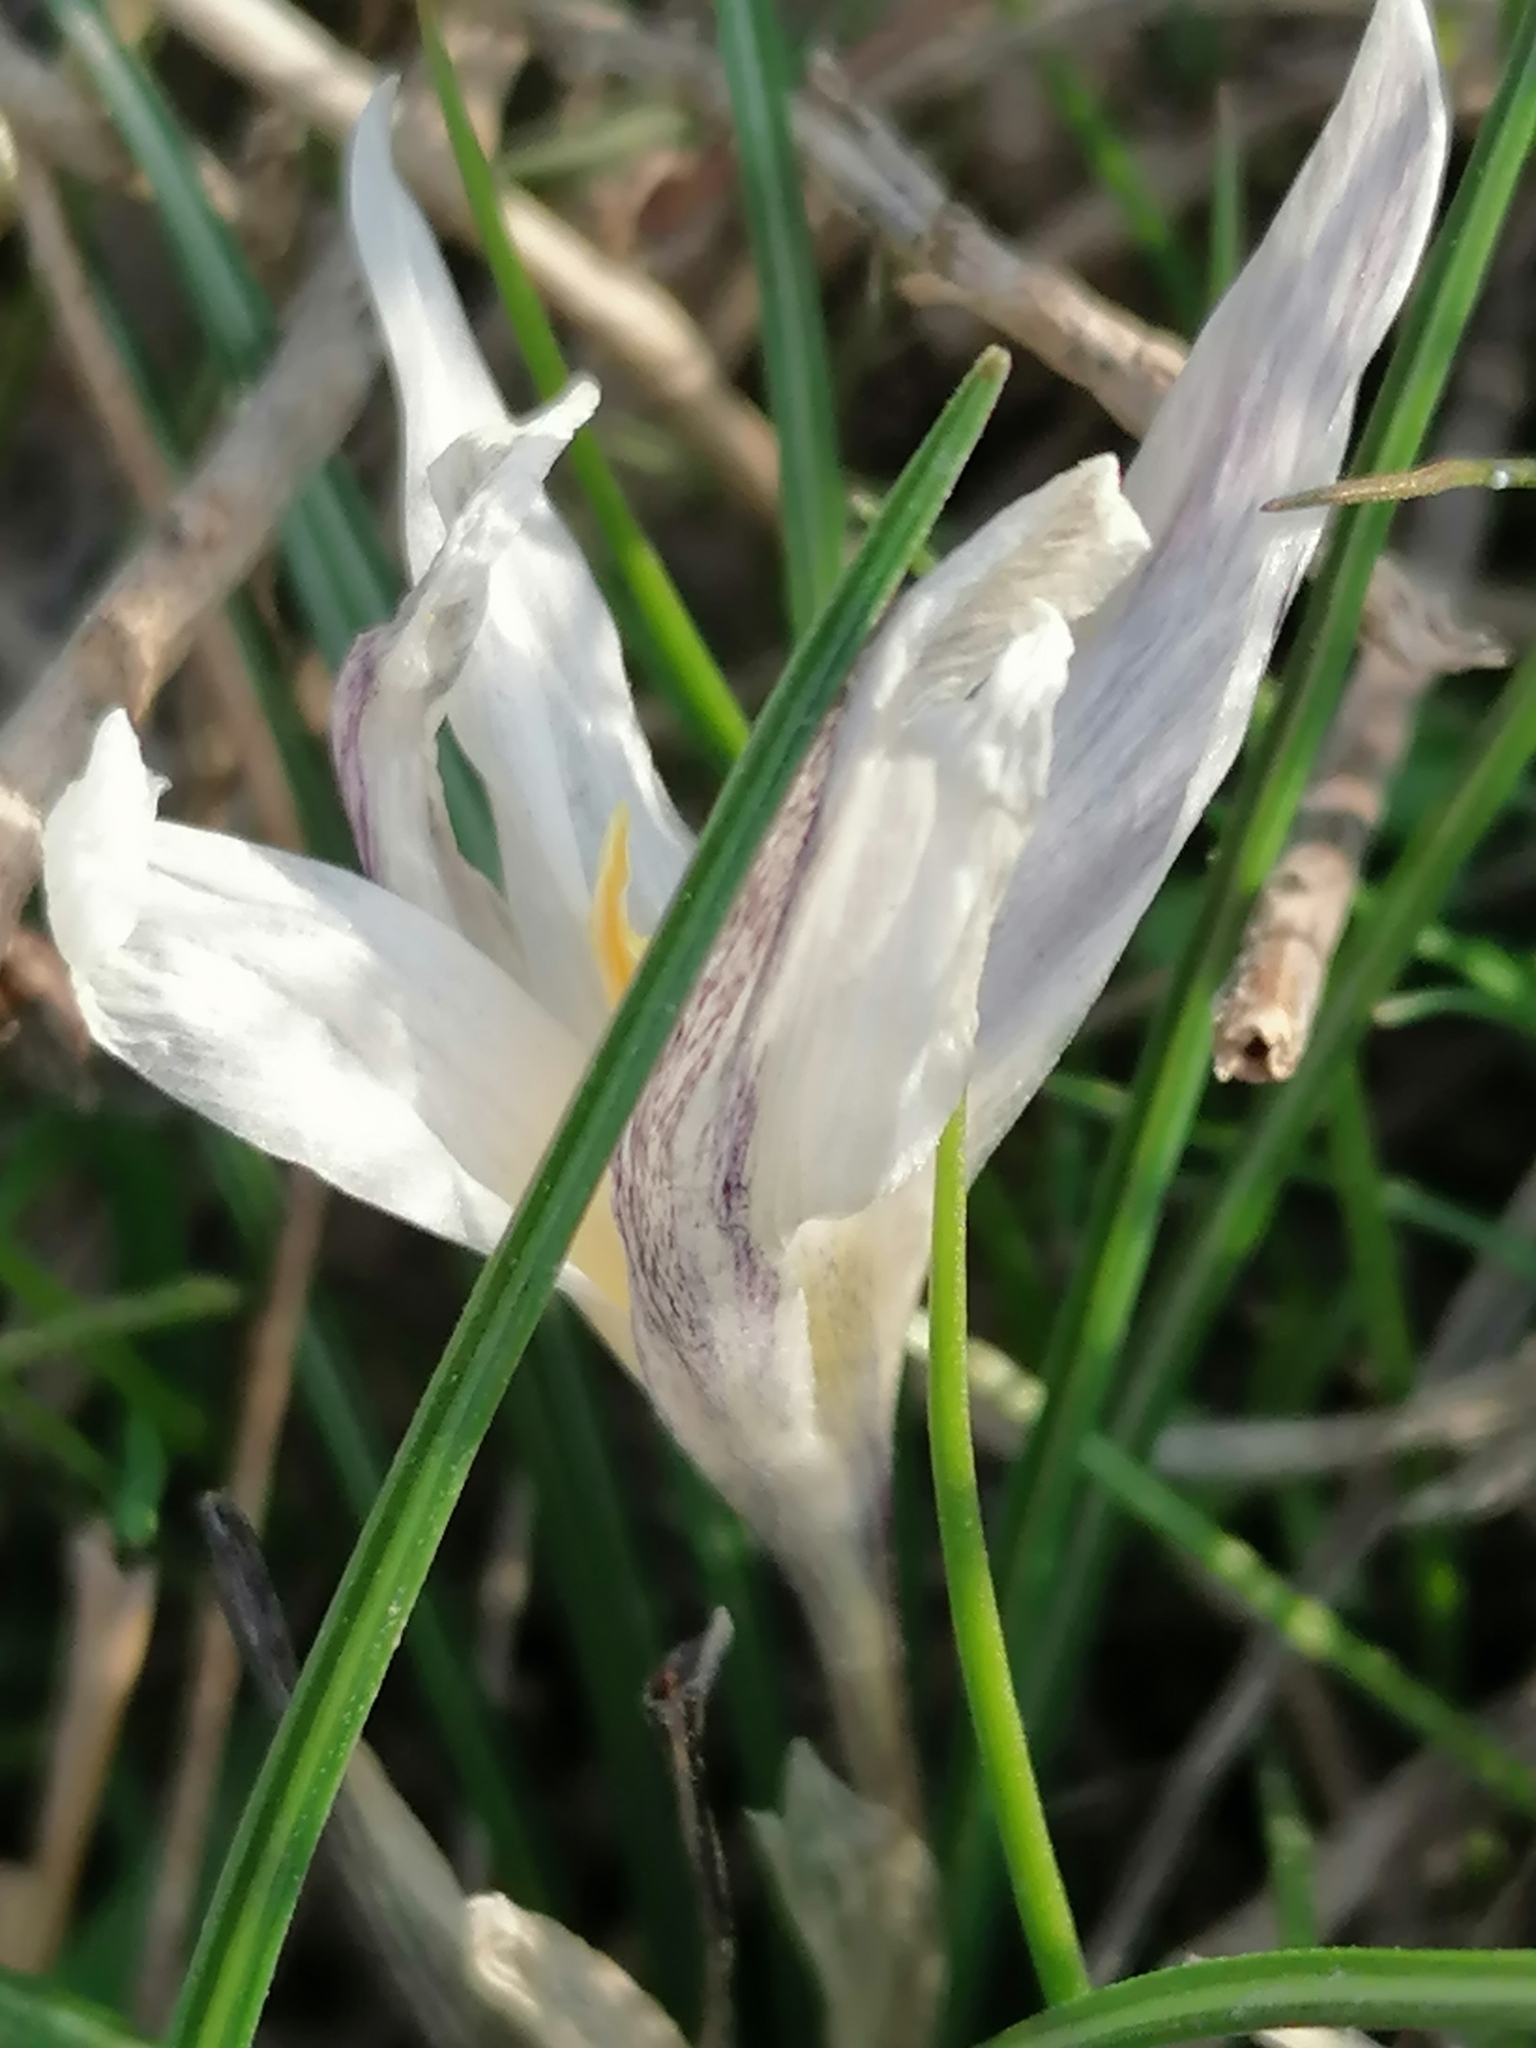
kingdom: Plantae
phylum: Tracheophyta
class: Liliopsida
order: Asparagales
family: Iridaceae
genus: Crocus
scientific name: Crocus alatavicus
